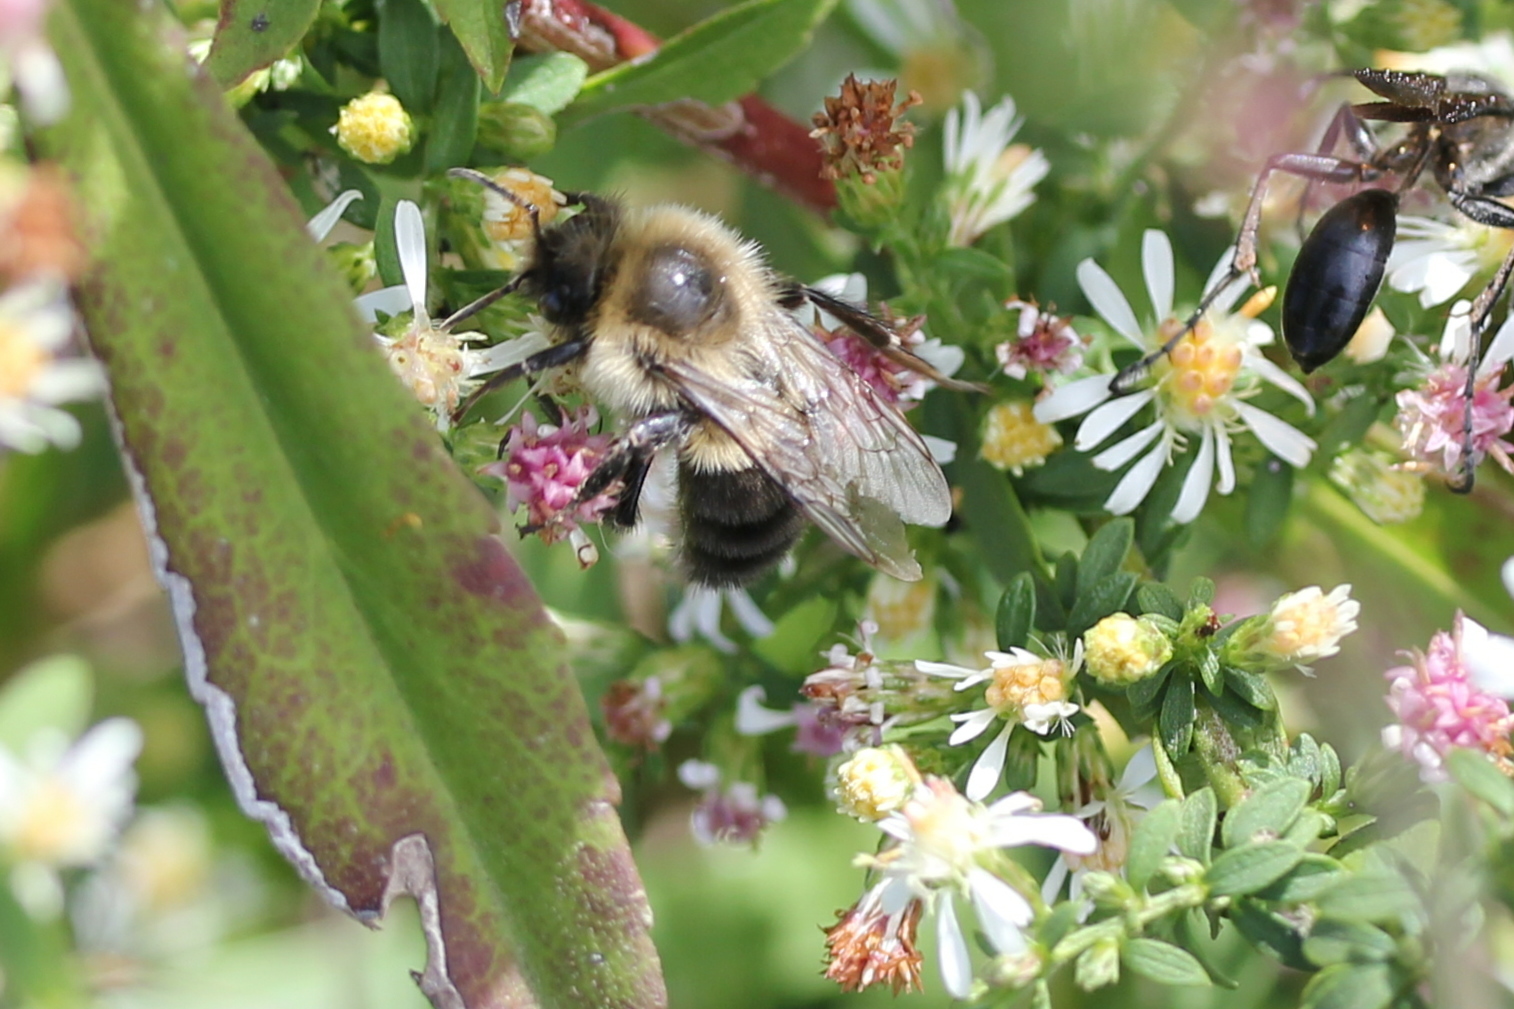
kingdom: Animalia
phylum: Arthropoda
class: Insecta
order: Hymenoptera
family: Apidae
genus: Bombus
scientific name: Bombus impatiens
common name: Common eastern bumble bee
